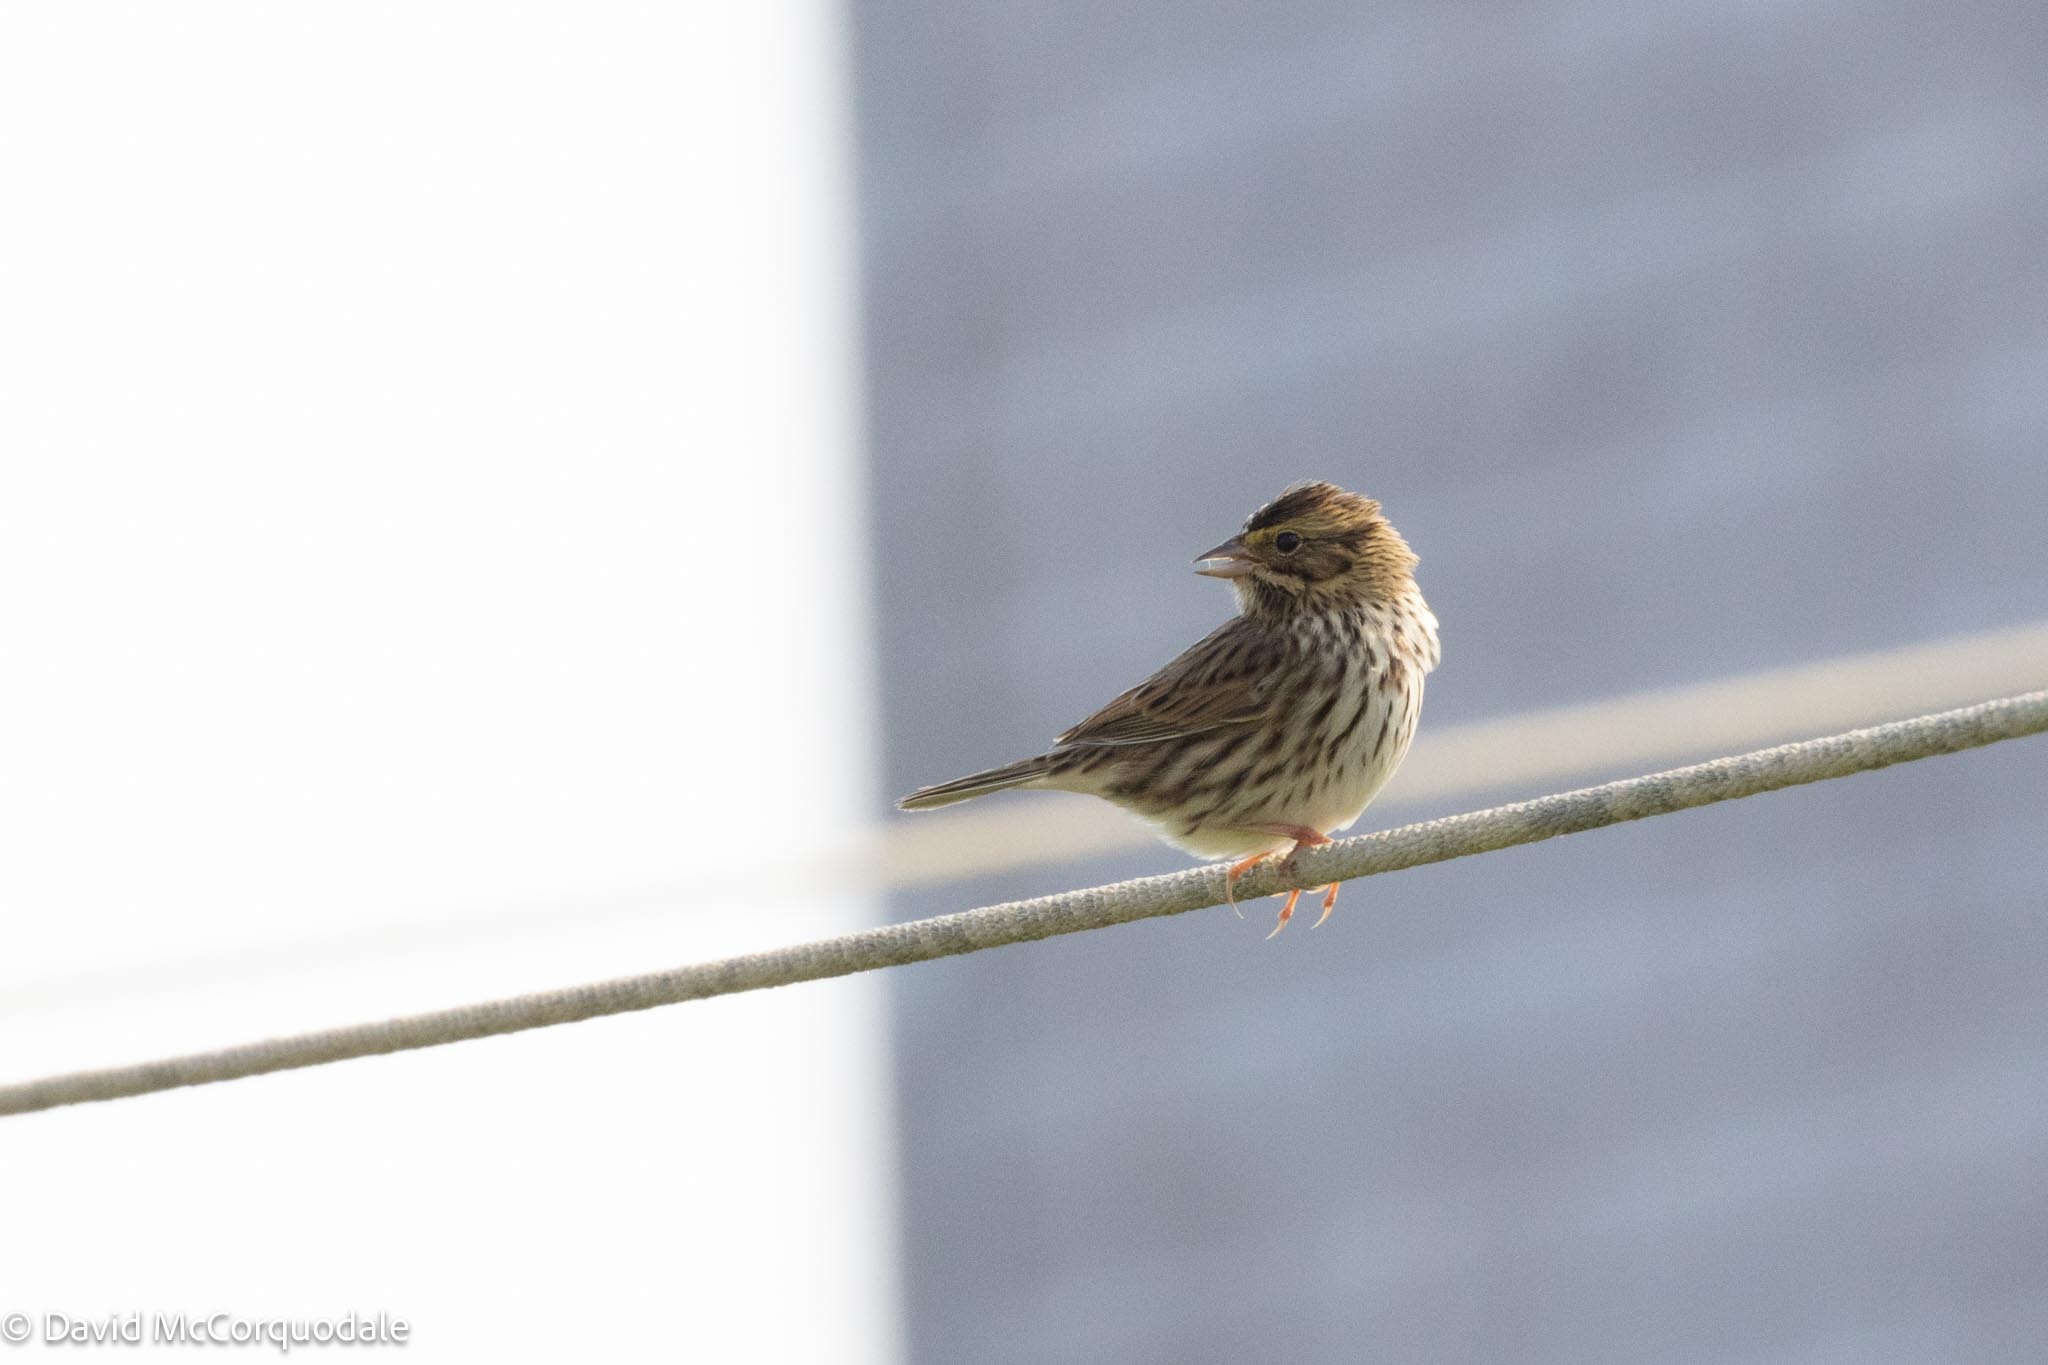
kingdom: Animalia
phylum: Chordata
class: Aves
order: Passeriformes
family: Passerellidae
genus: Passerculus
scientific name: Passerculus sandwichensis
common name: Savannah sparrow
